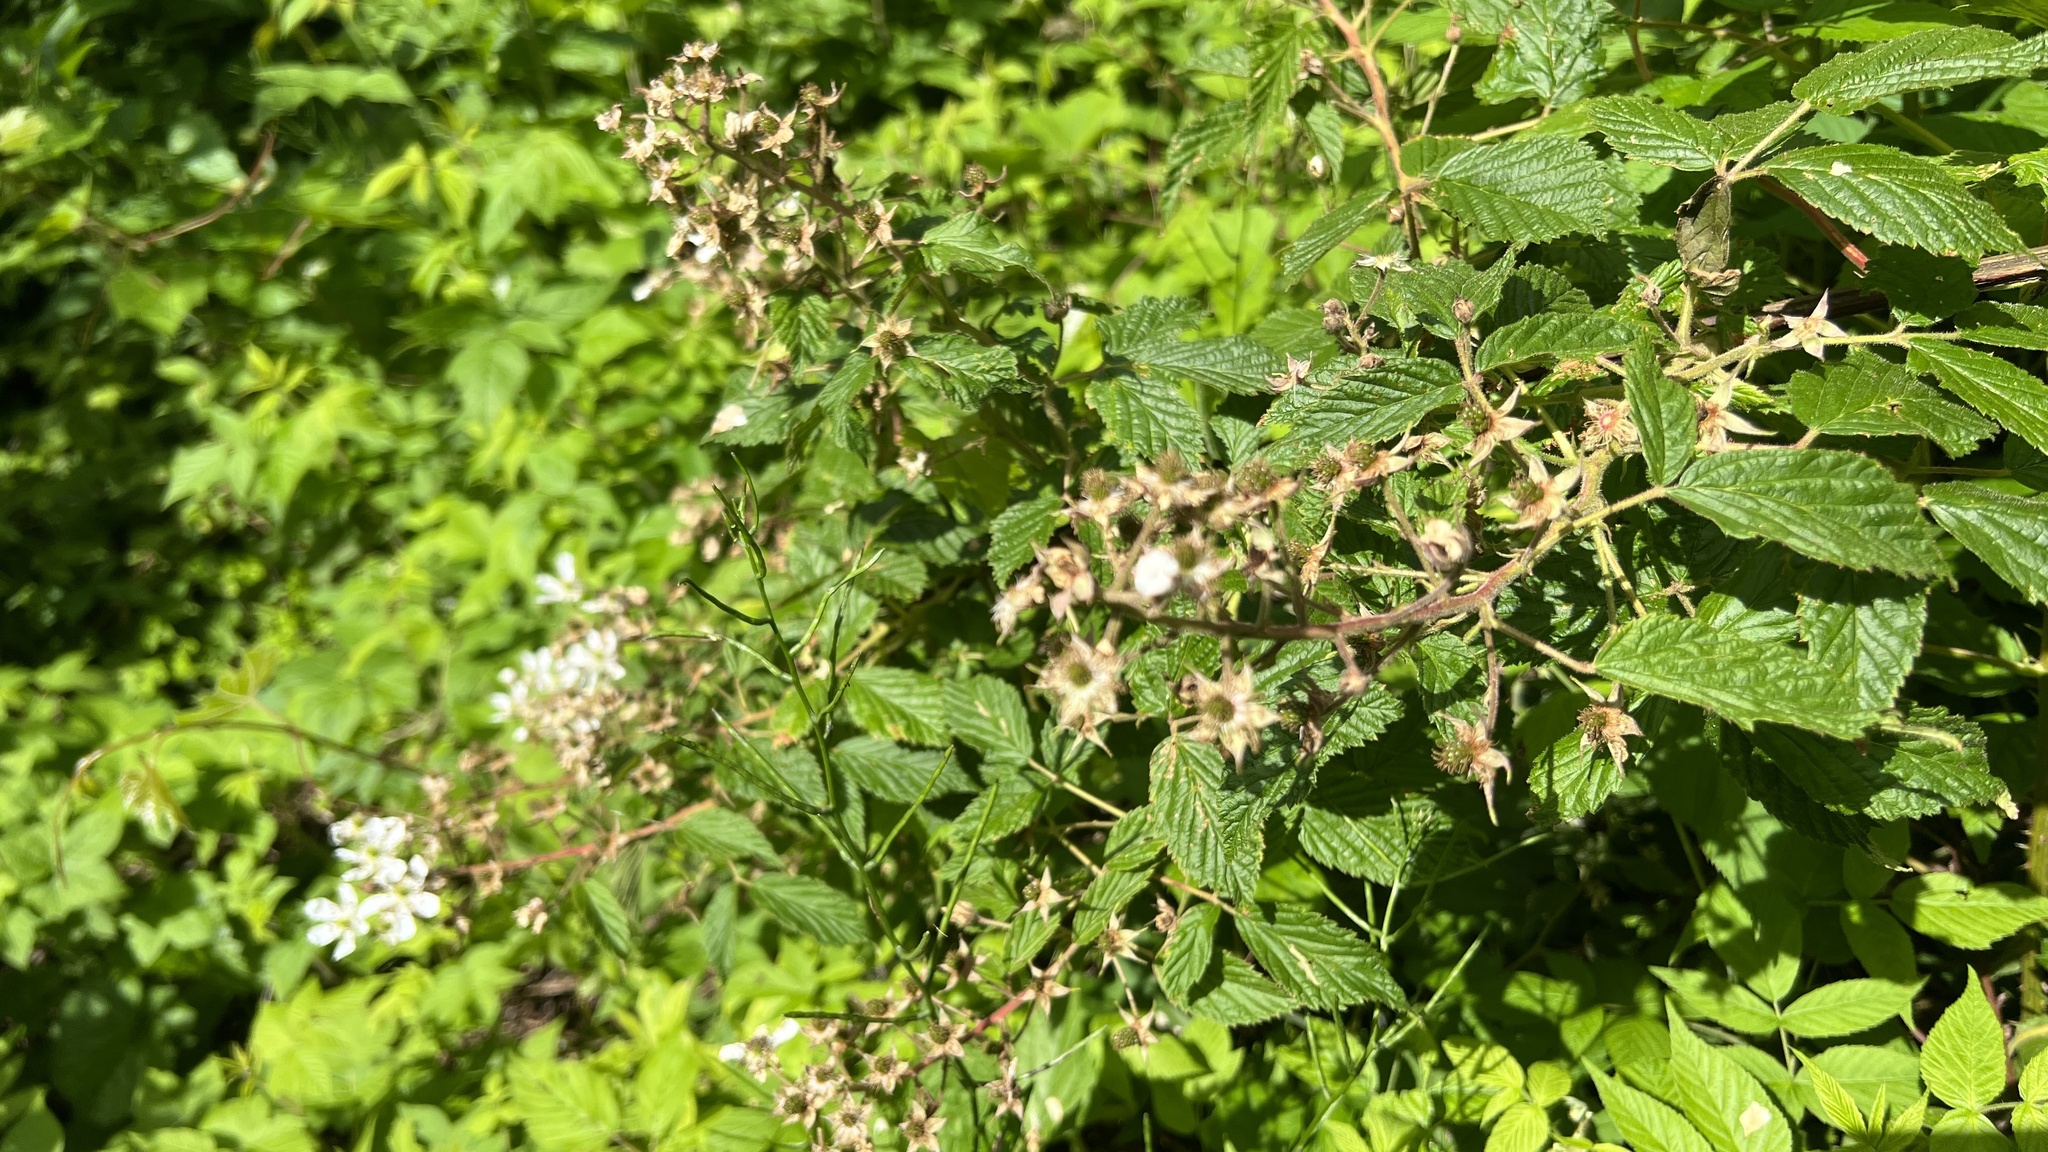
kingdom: Plantae
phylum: Tracheophyta
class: Magnoliopsida
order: Rosales
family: Rosaceae
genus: Rubus
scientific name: Rubus allegheniensis
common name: Allegheny blackberry
